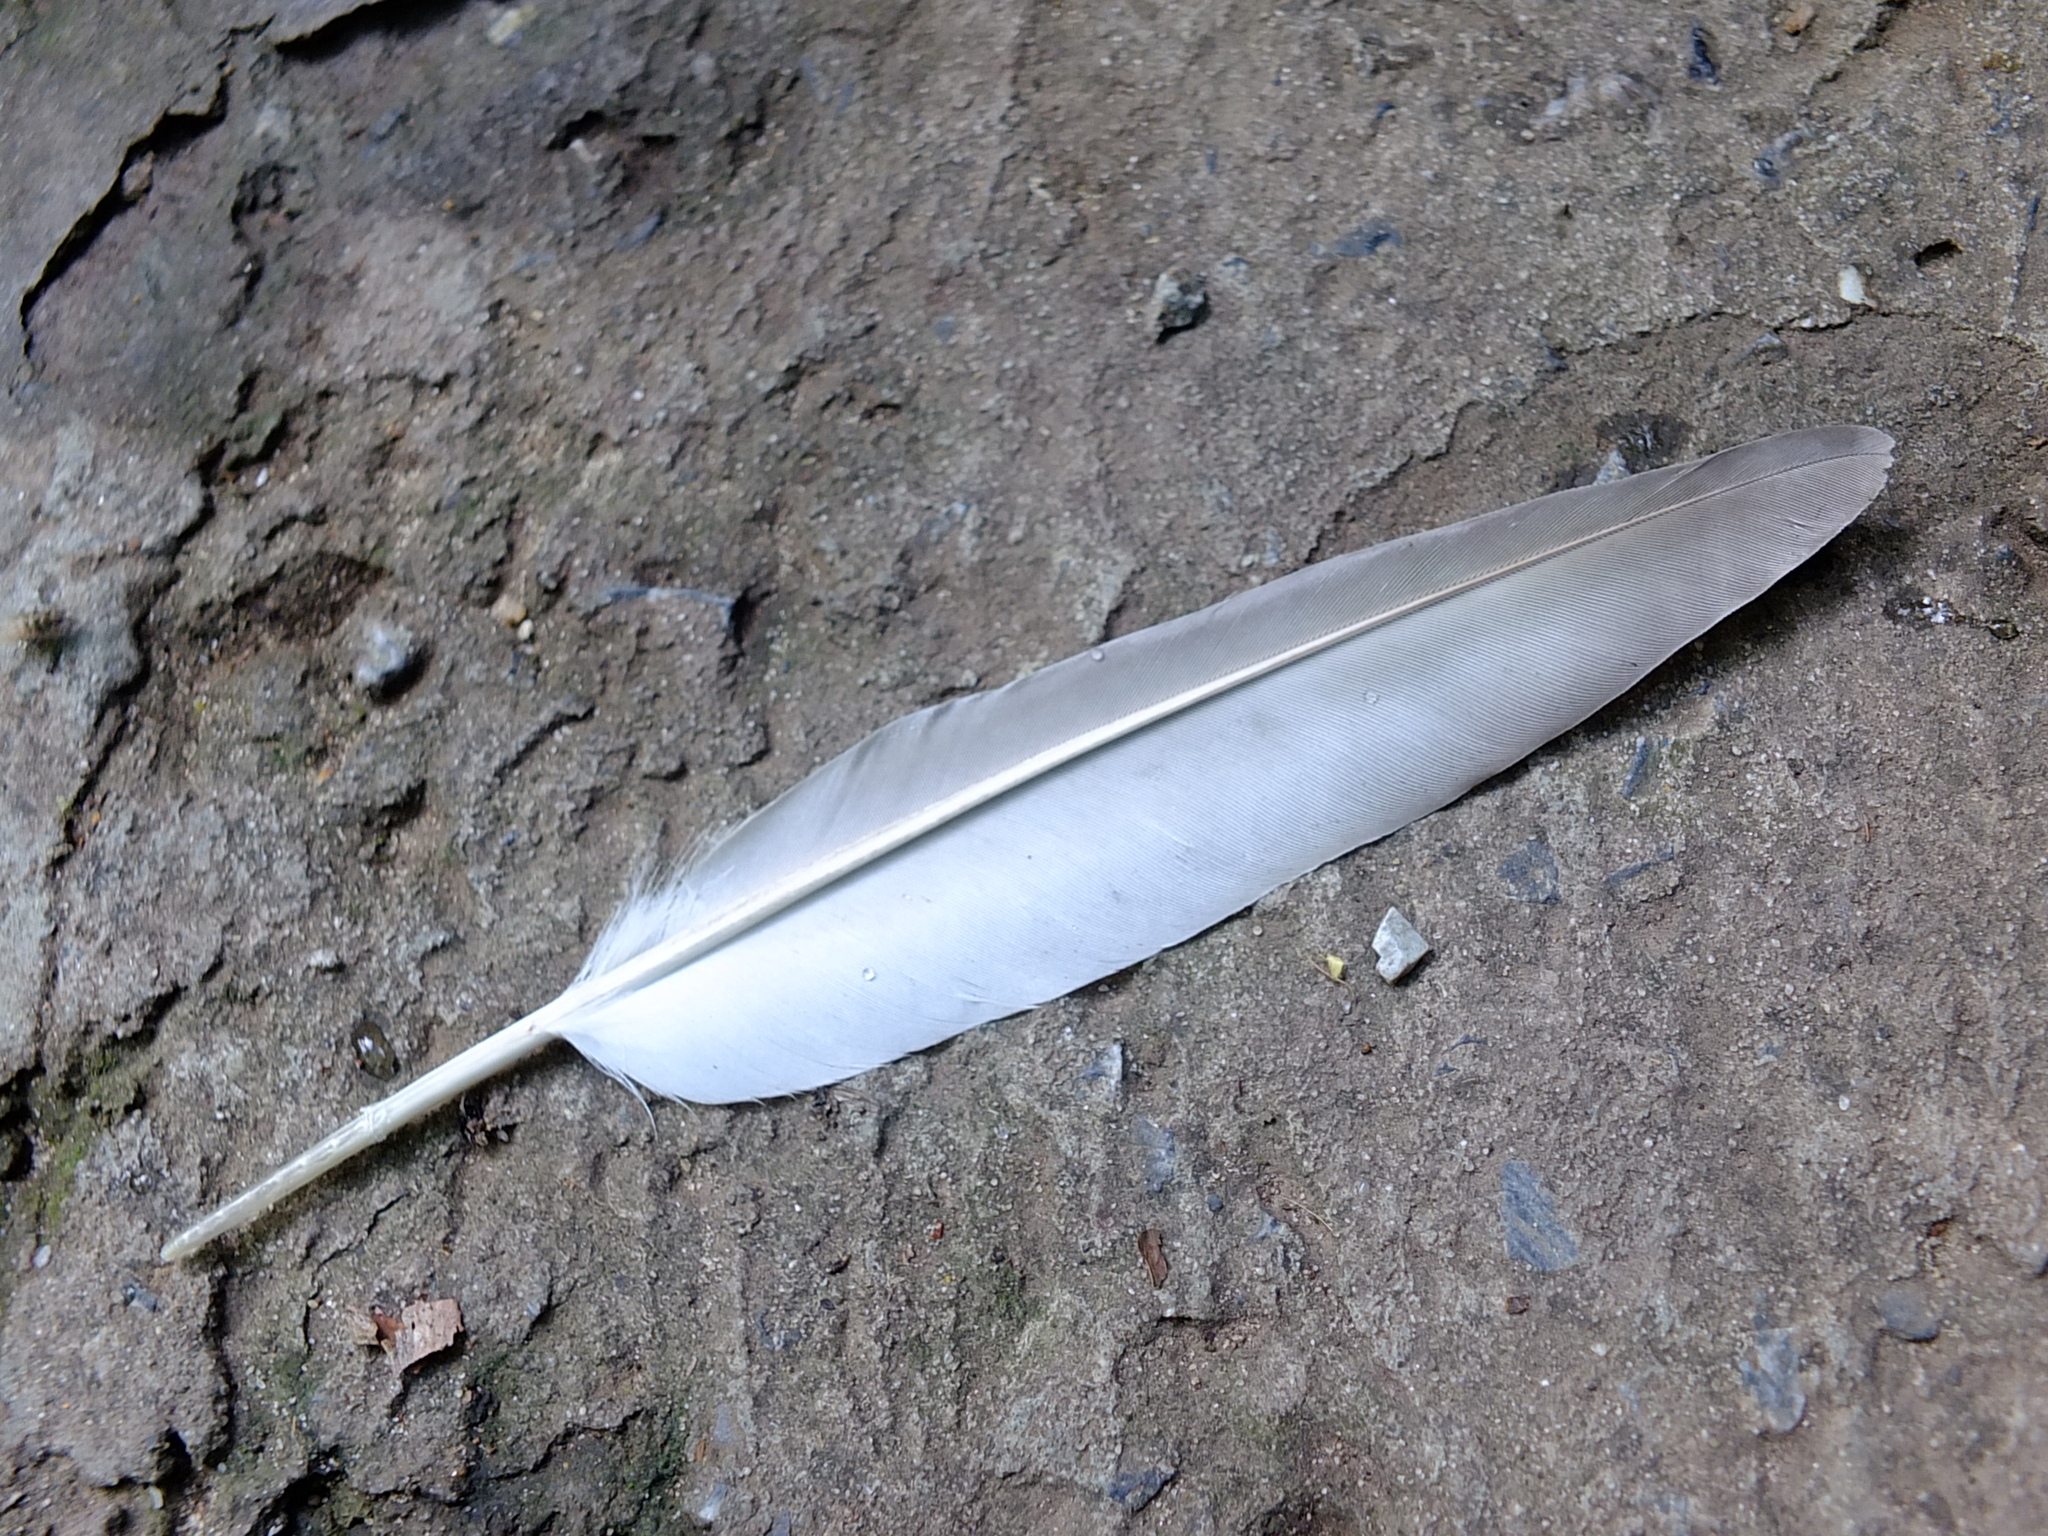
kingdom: Animalia
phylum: Chordata
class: Aves
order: Columbiformes
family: Columbidae
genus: Columba
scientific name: Columba livia
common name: Rock pigeon
